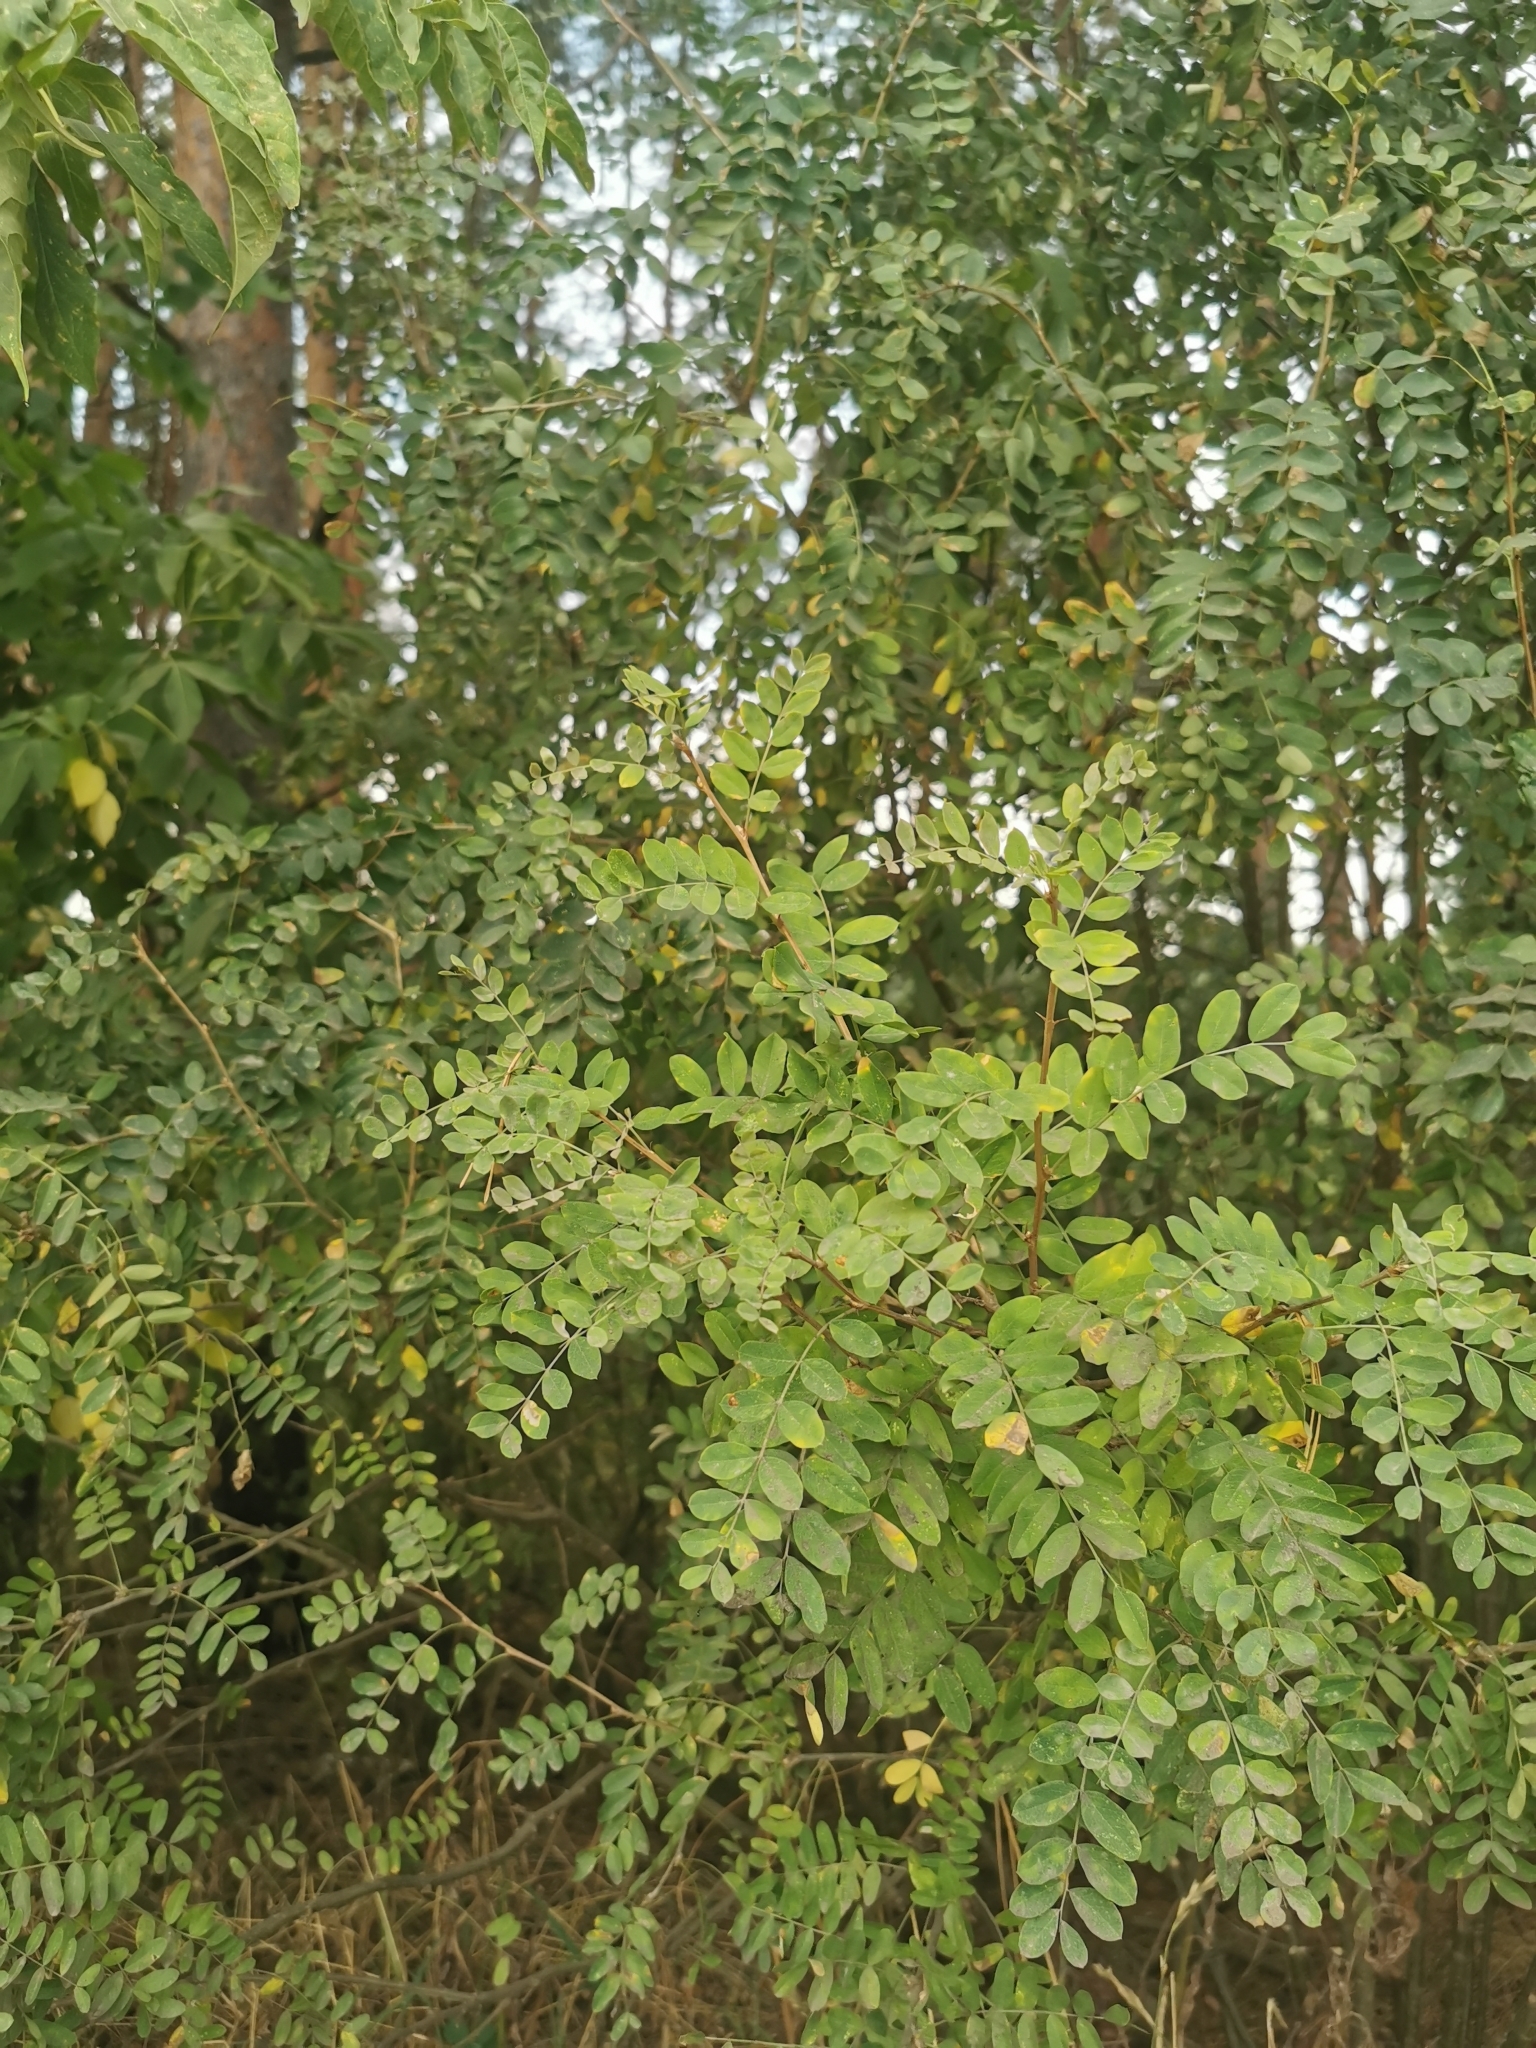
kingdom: Plantae
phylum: Tracheophyta
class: Magnoliopsida
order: Fabales
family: Fabaceae
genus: Caragana
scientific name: Caragana arborescens
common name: Siberian peashrub
